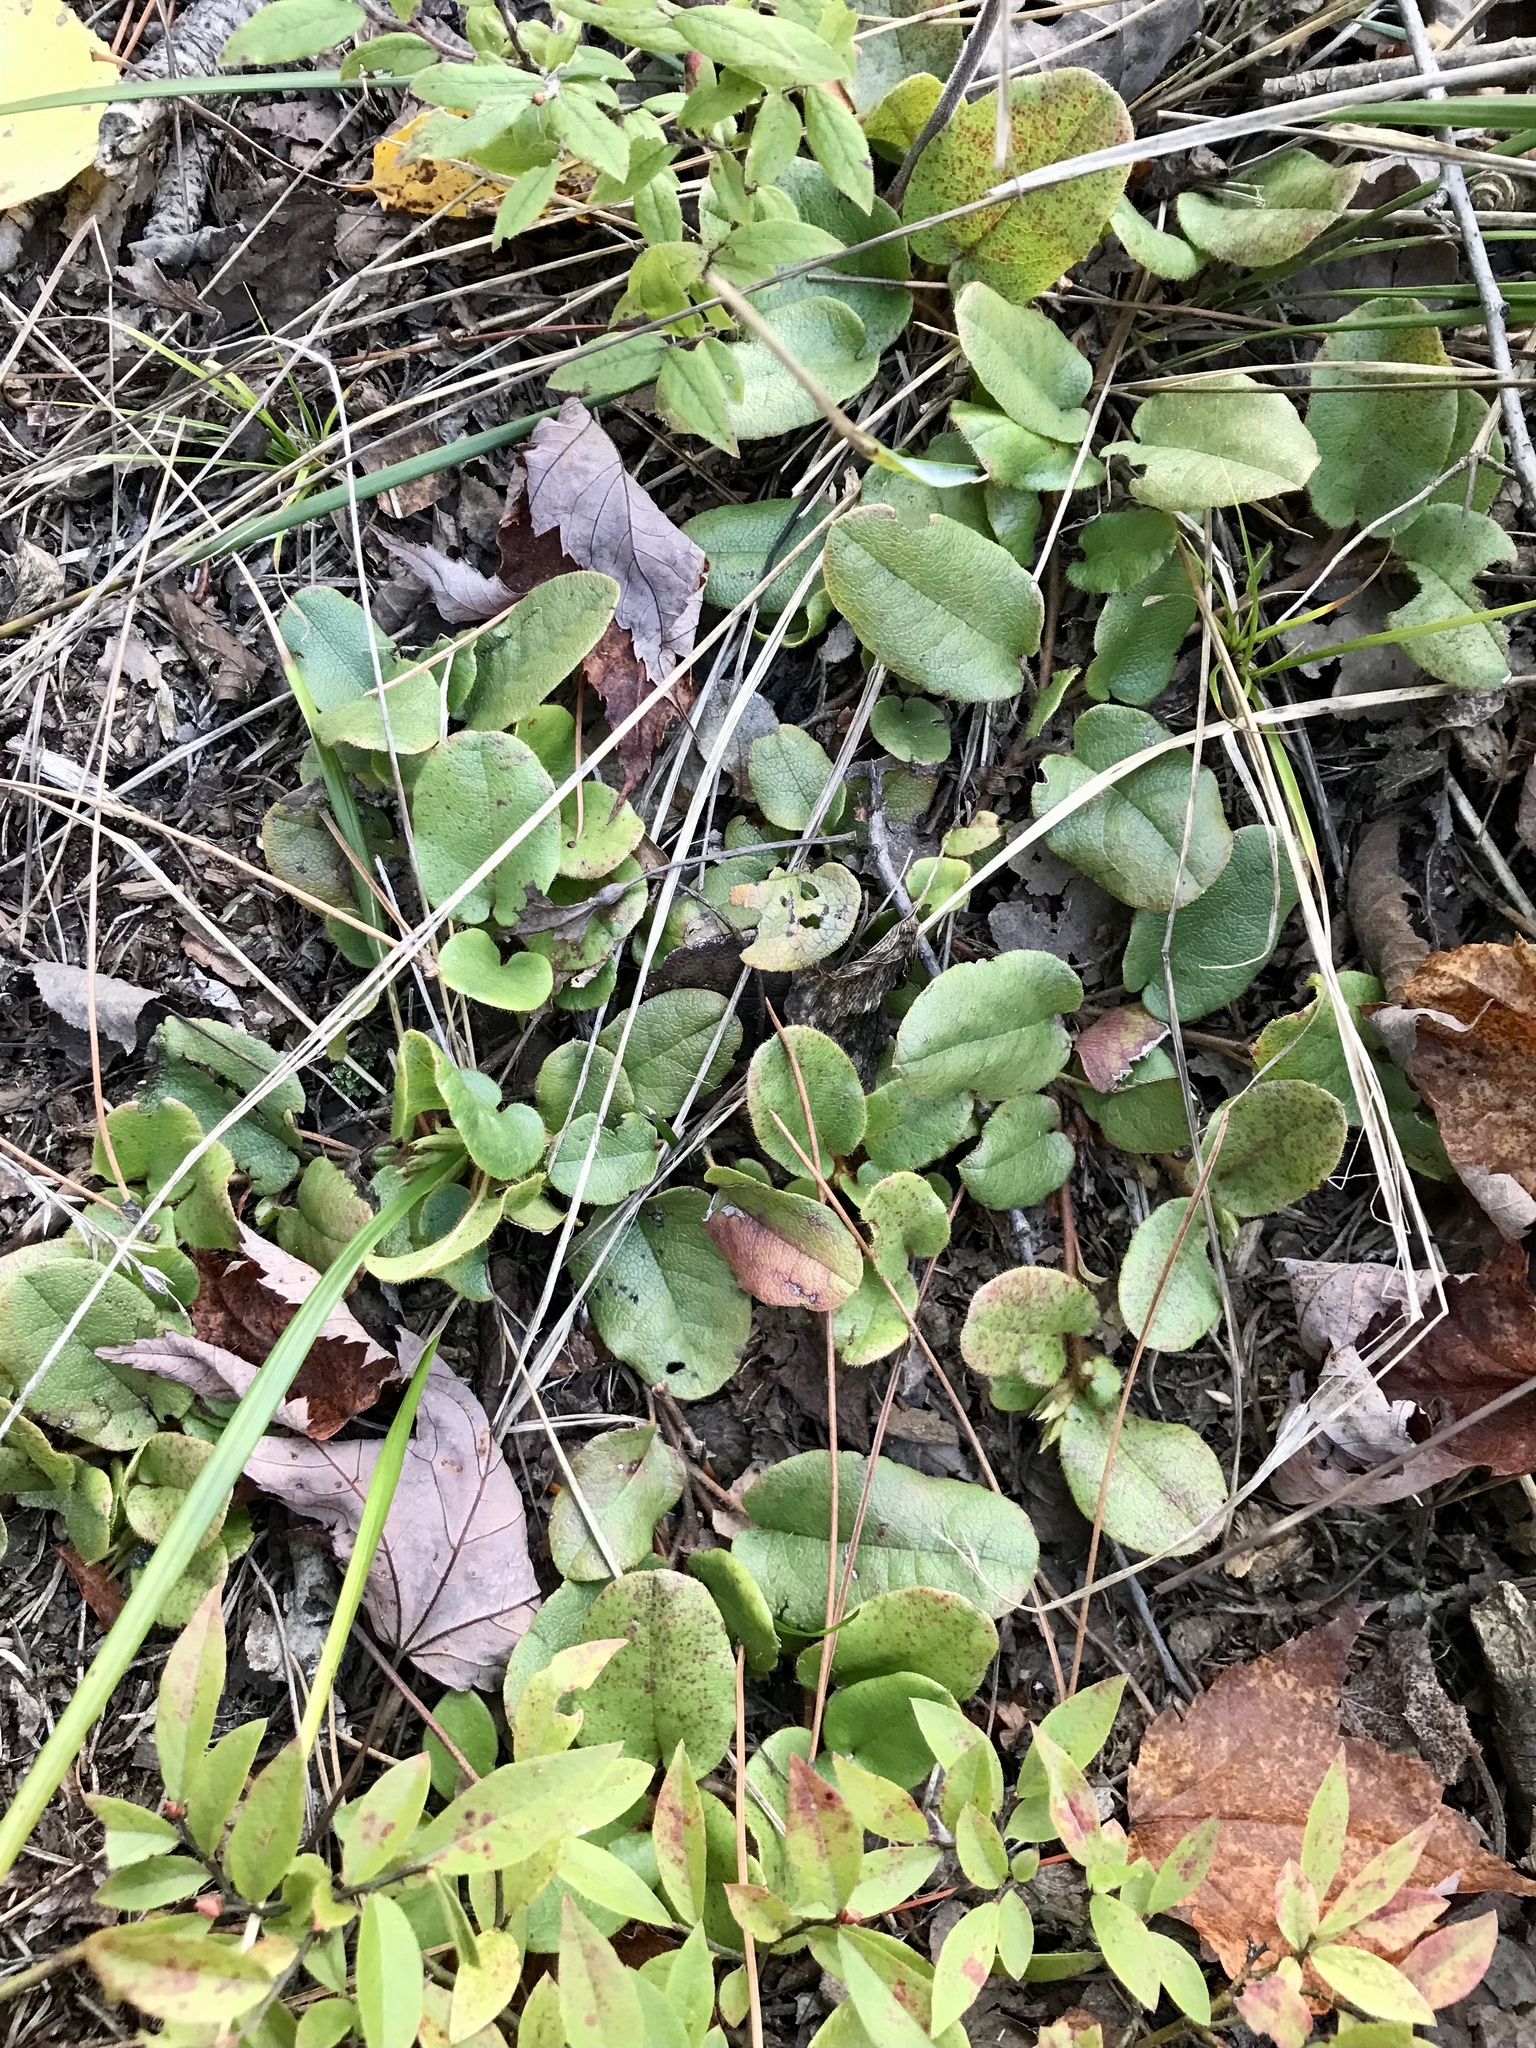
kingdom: Plantae
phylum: Tracheophyta
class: Magnoliopsida
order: Ericales
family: Ericaceae
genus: Epigaea
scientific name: Epigaea repens
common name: Gravelroot
